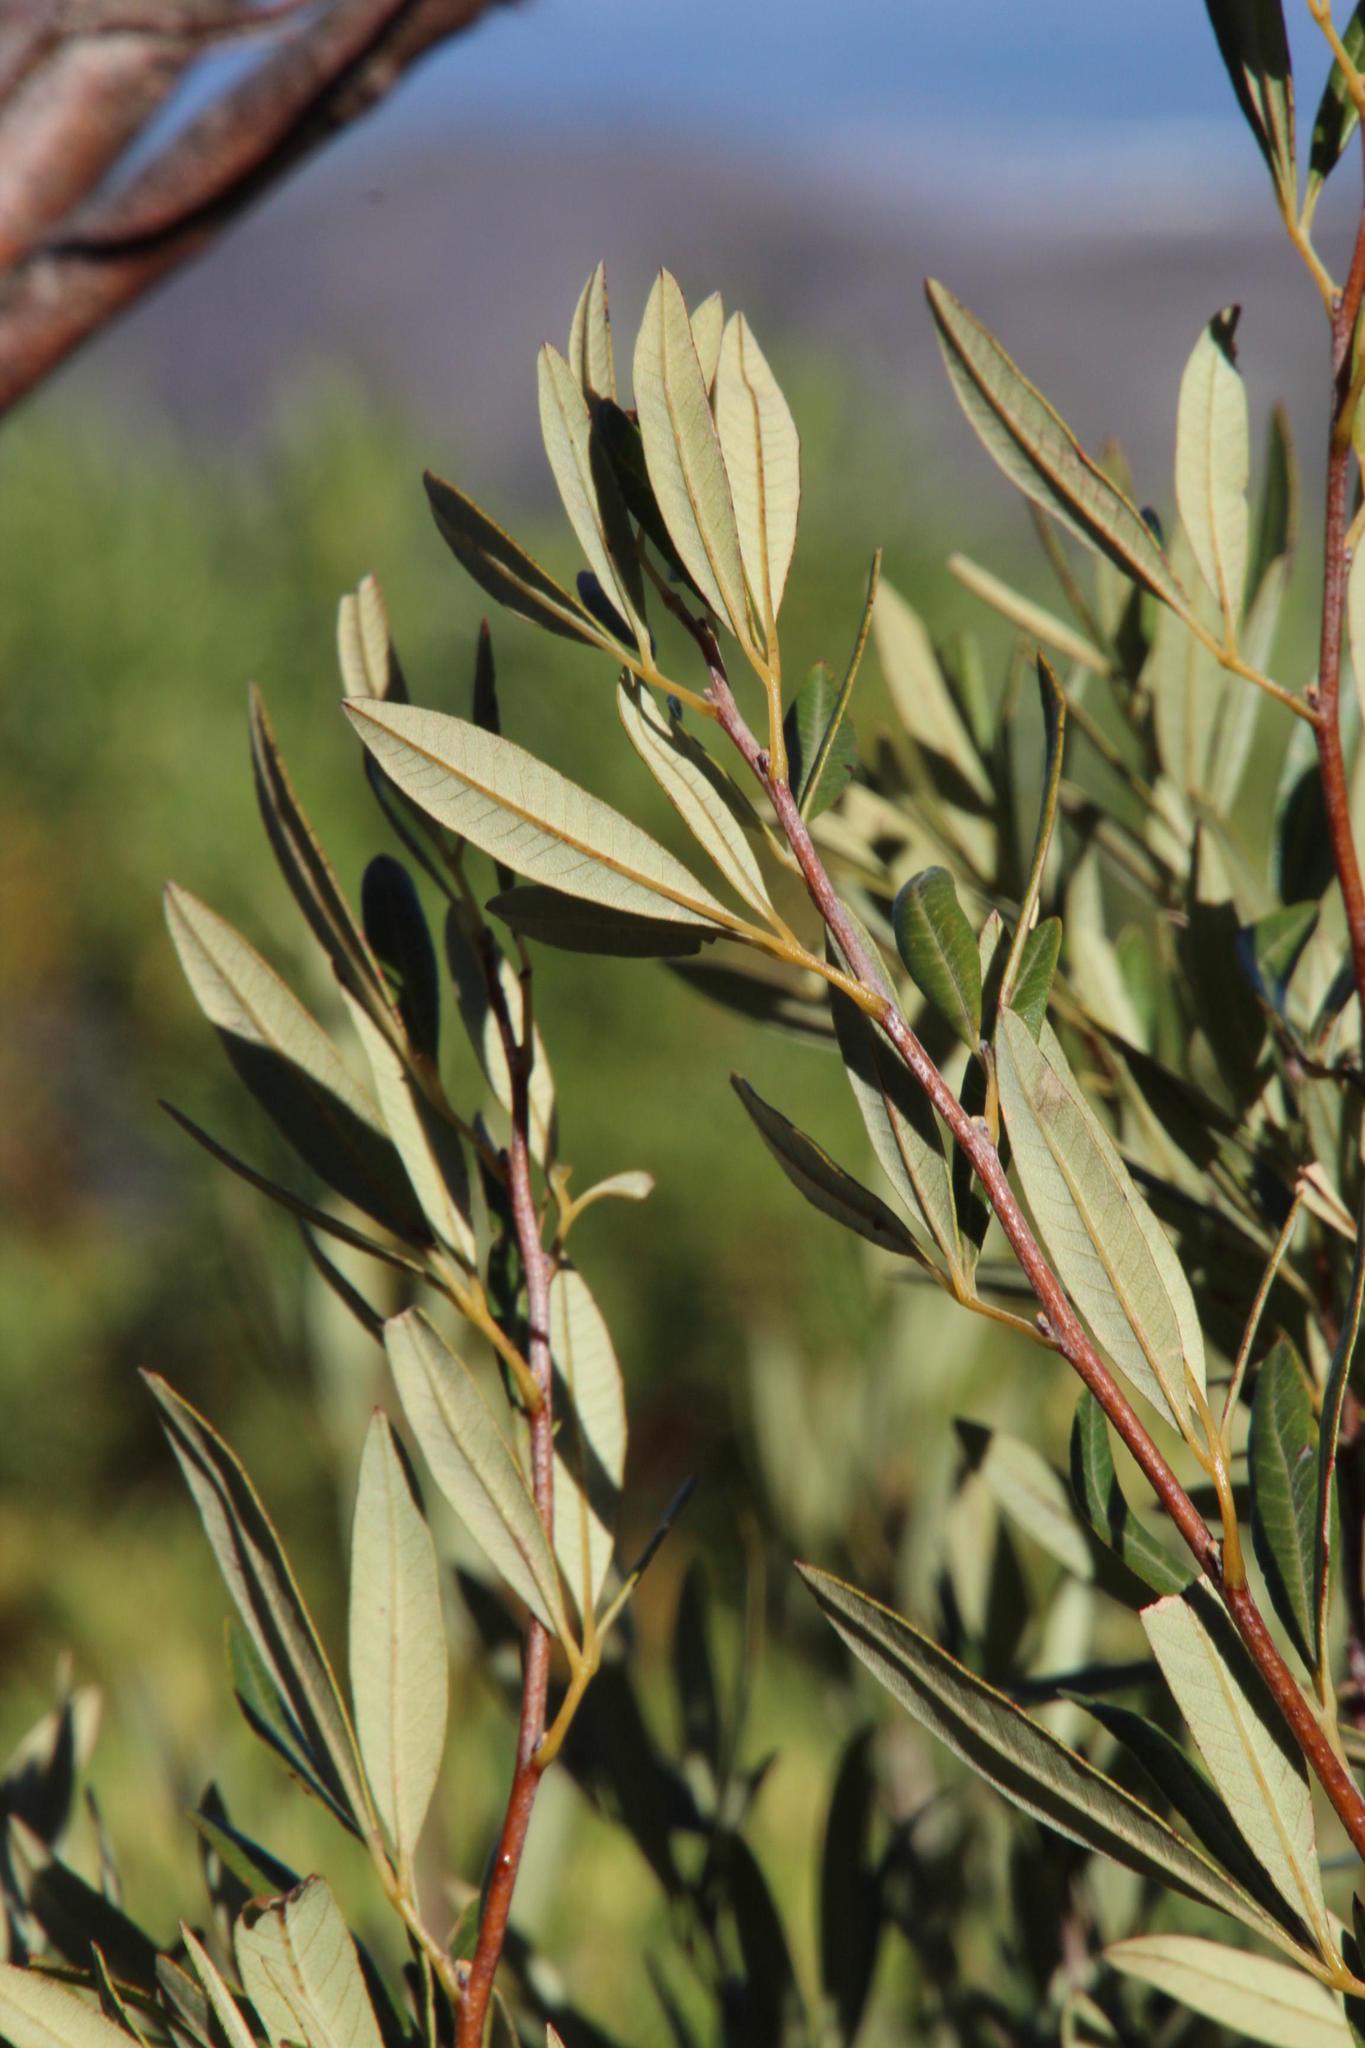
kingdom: Plantae
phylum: Tracheophyta
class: Magnoliopsida
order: Sapindales
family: Anacardiaceae
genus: Searsia
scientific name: Searsia angustifolia
